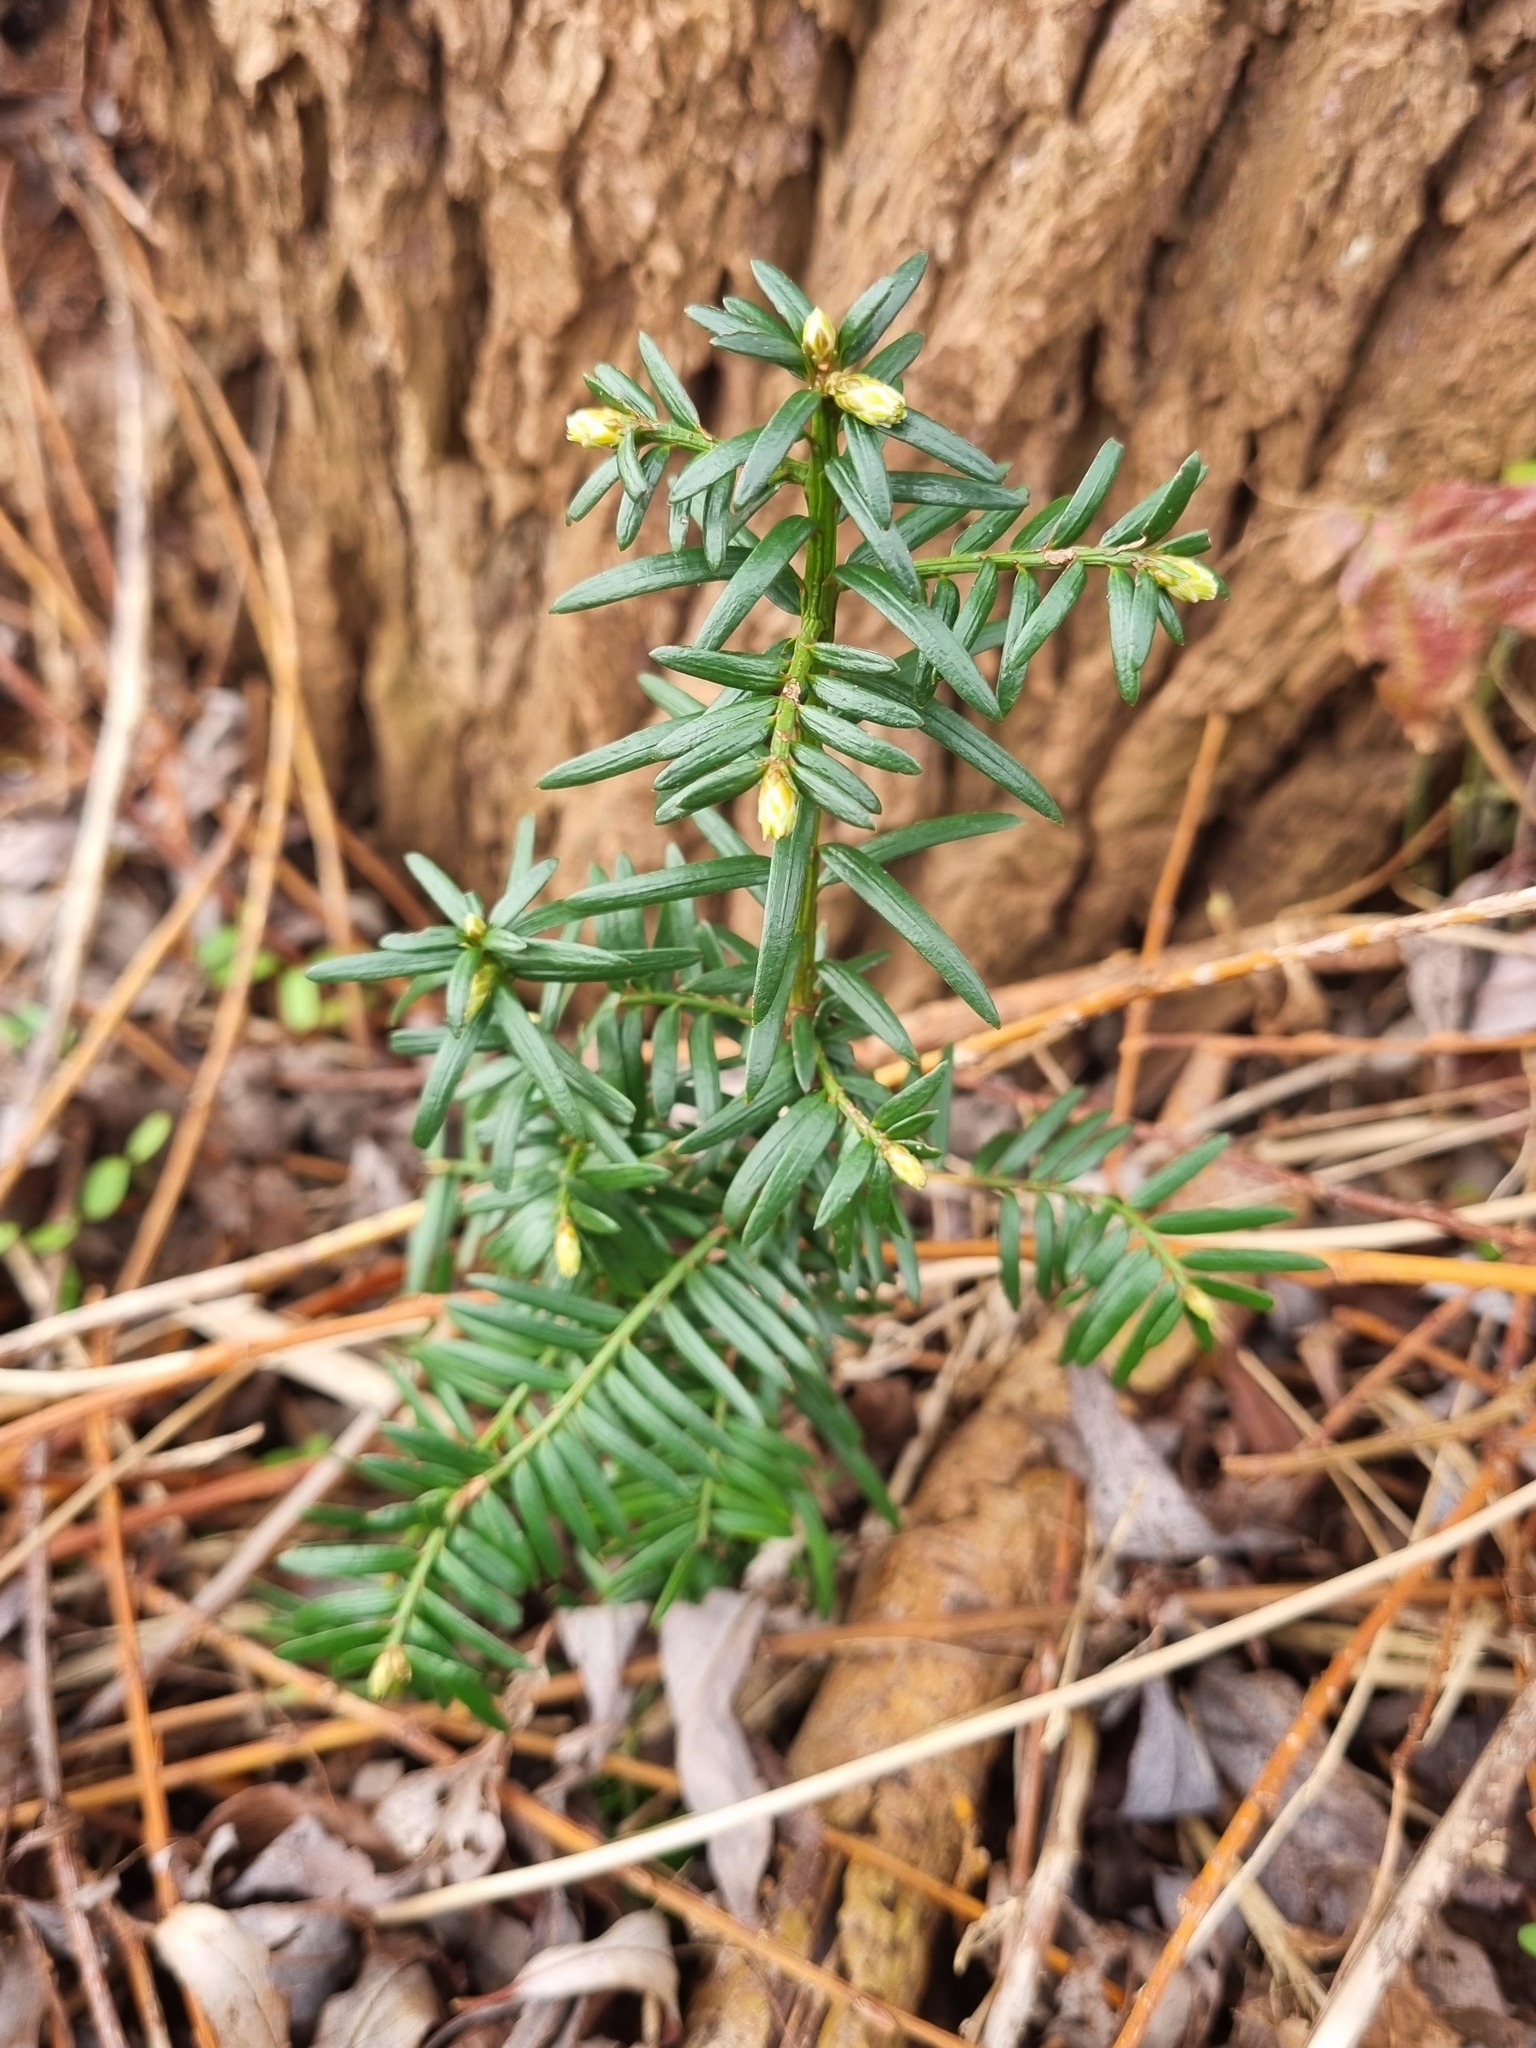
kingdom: Plantae
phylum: Tracheophyta
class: Pinopsida
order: Pinales
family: Taxaceae
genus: Taxus
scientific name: Taxus baccata
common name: Yew
